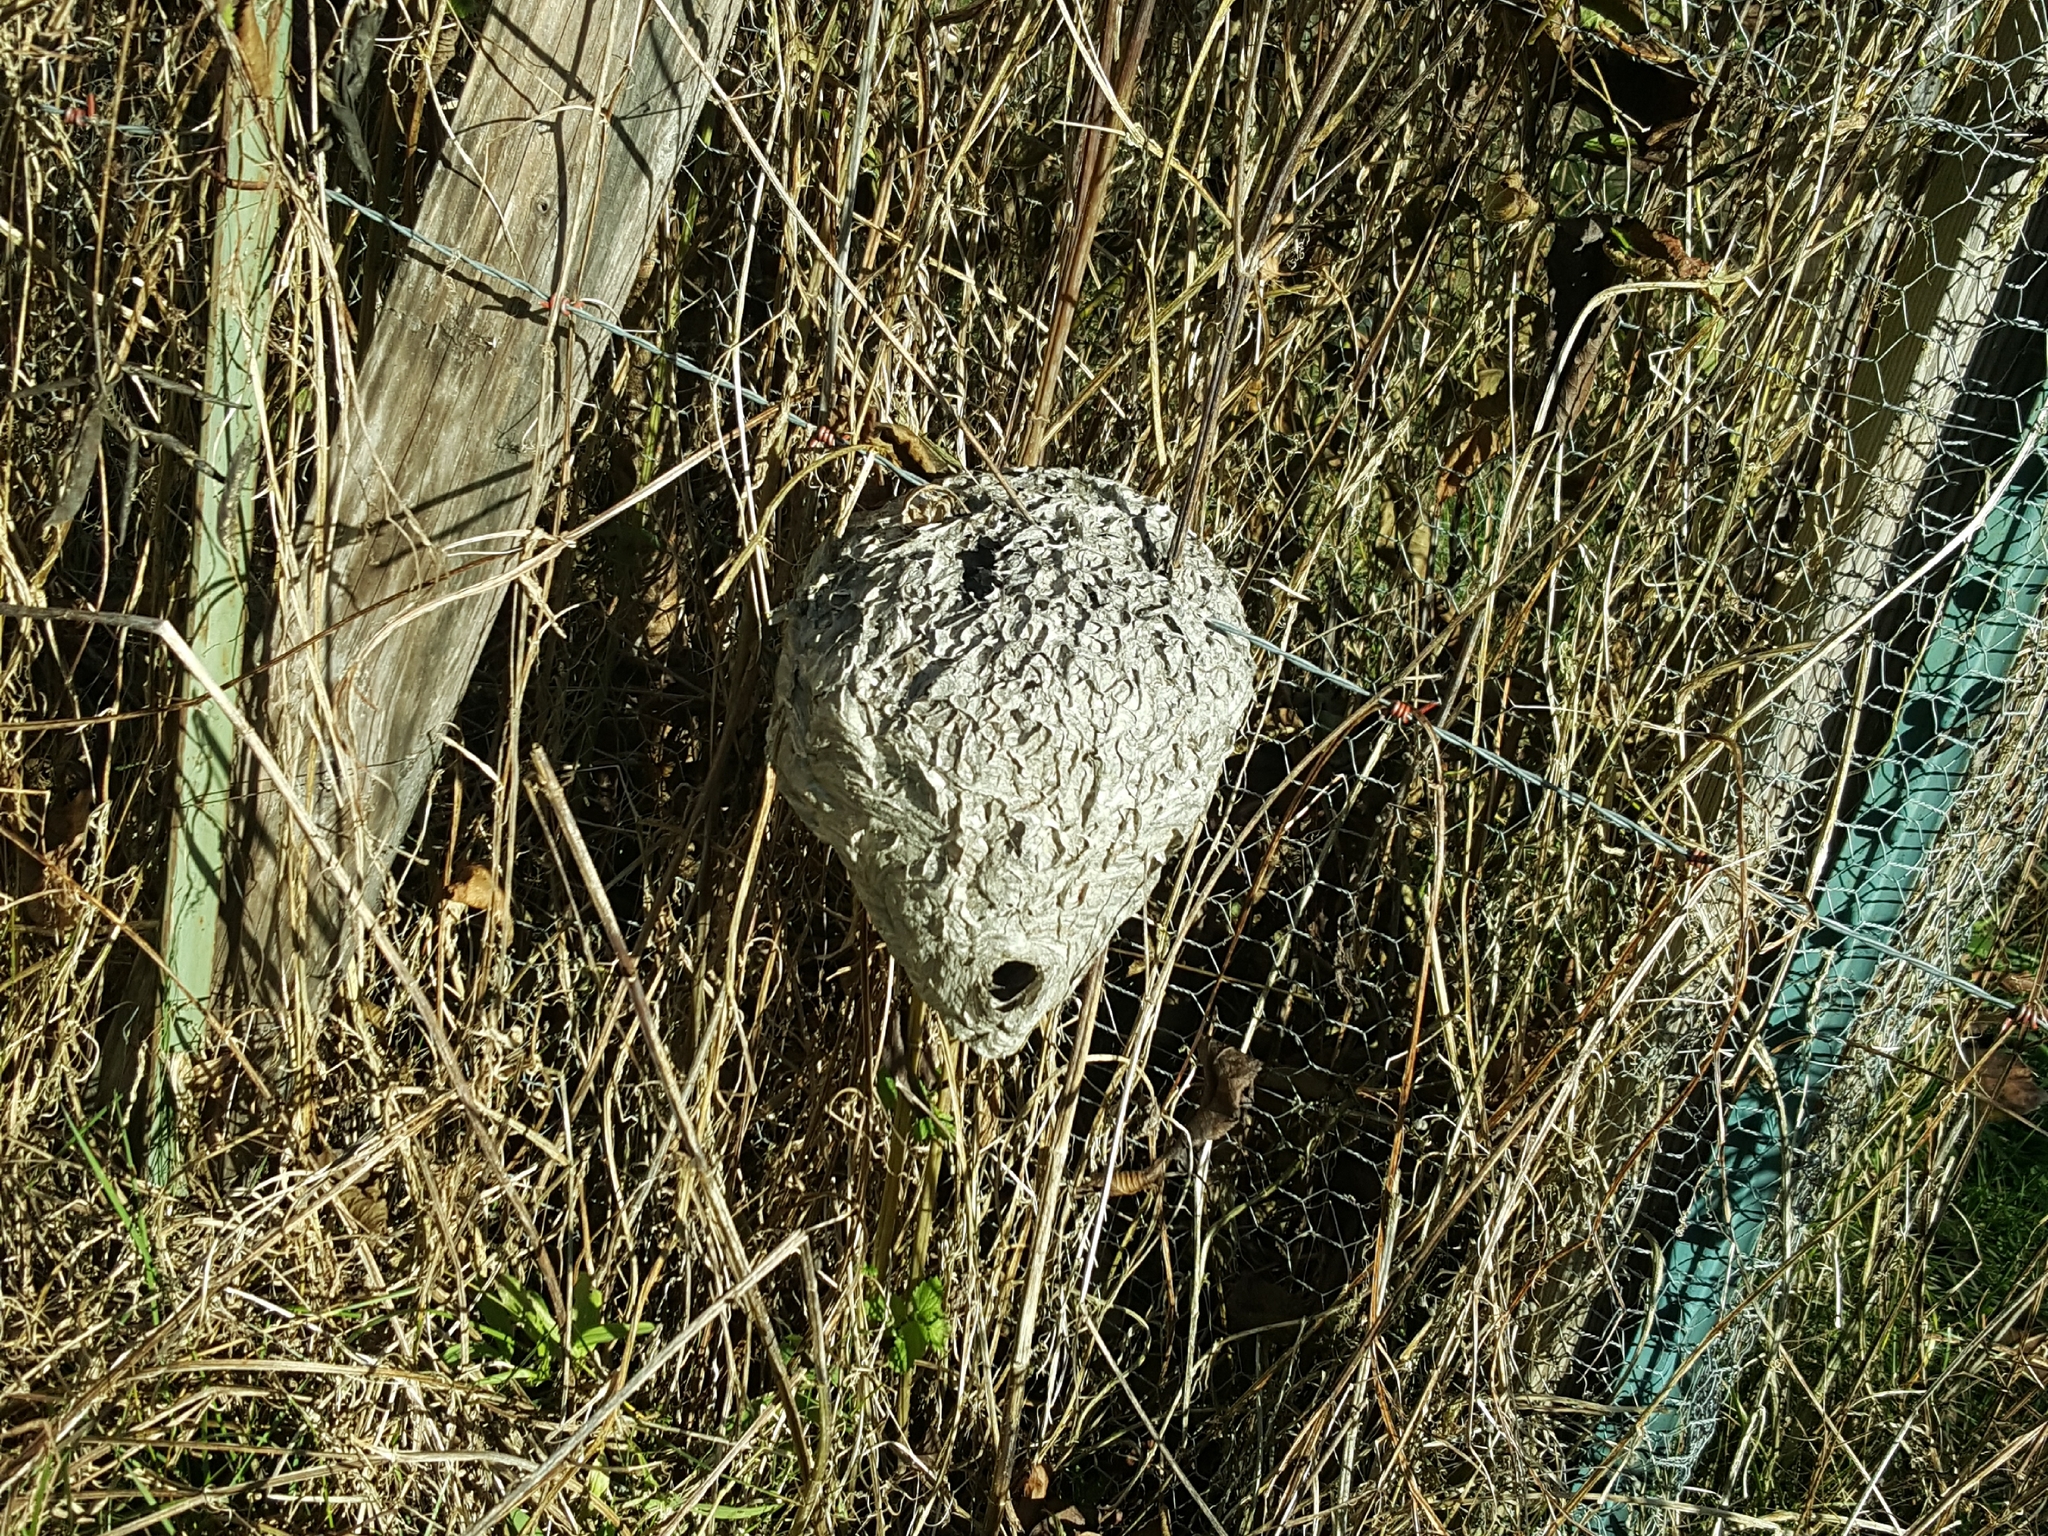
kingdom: Animalia
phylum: Arthropoda
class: Insecta
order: Hymenoptera
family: Vespidae
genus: Dolichovespula
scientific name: Dolichovespula maculata
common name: Bald-faced hornet
